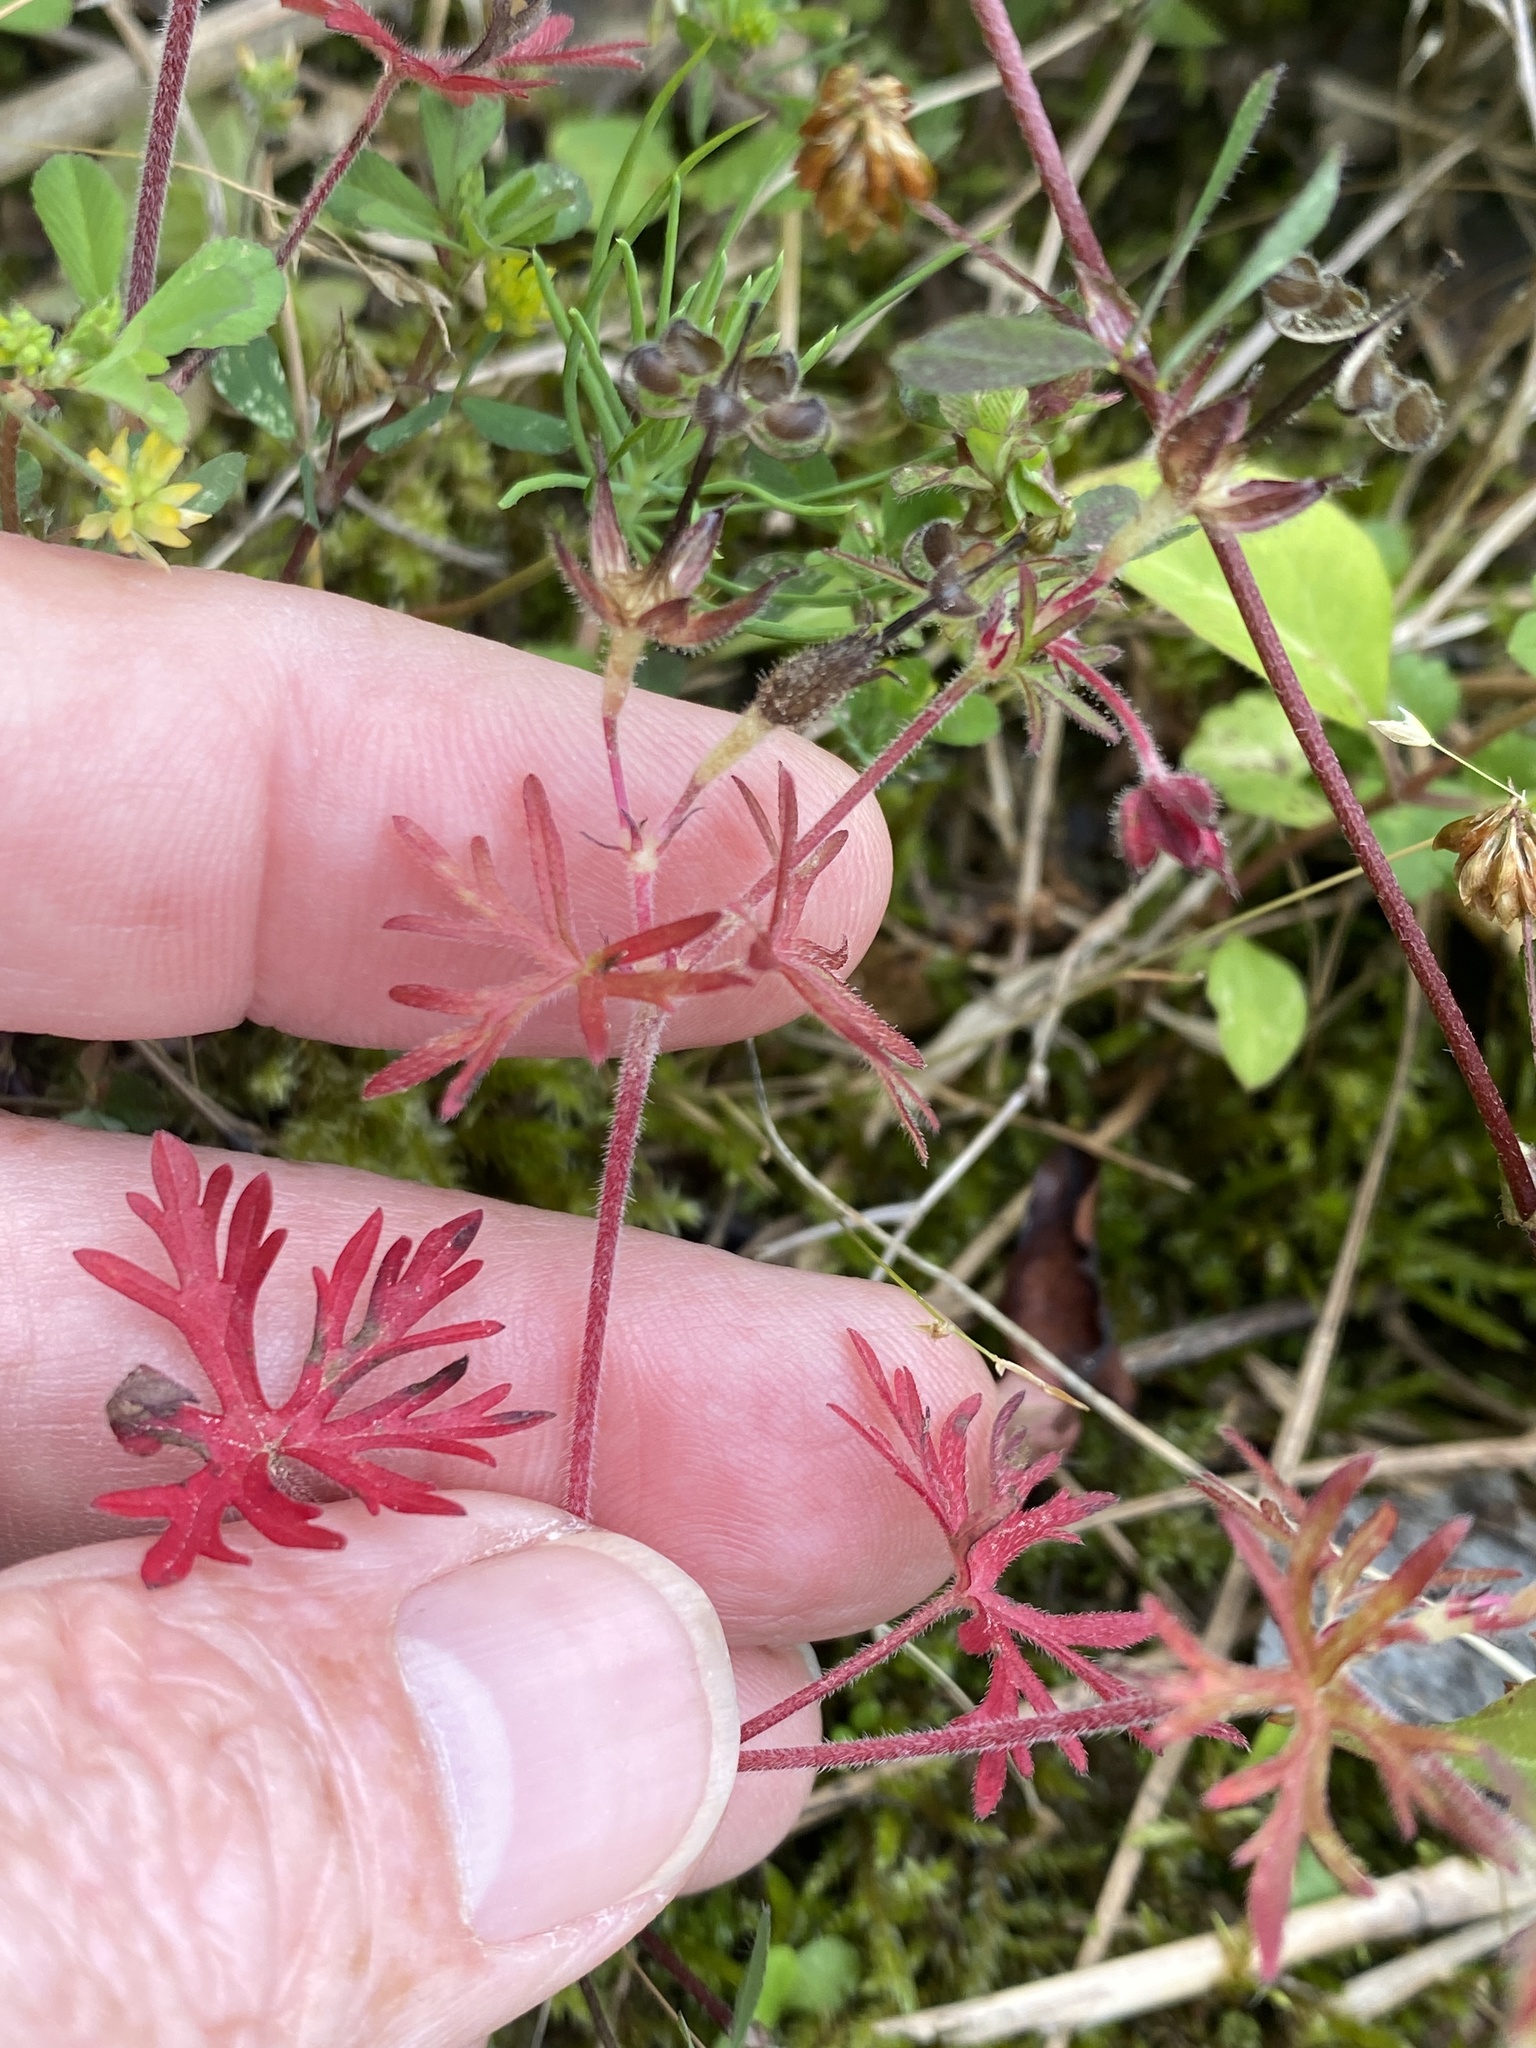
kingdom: Plantae
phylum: Tracheophyta
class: Magnoliopsida
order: Geraniales
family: Geraniaceae
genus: Geranium
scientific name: Geranium carolinianum
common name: Carolina crane's-bill
